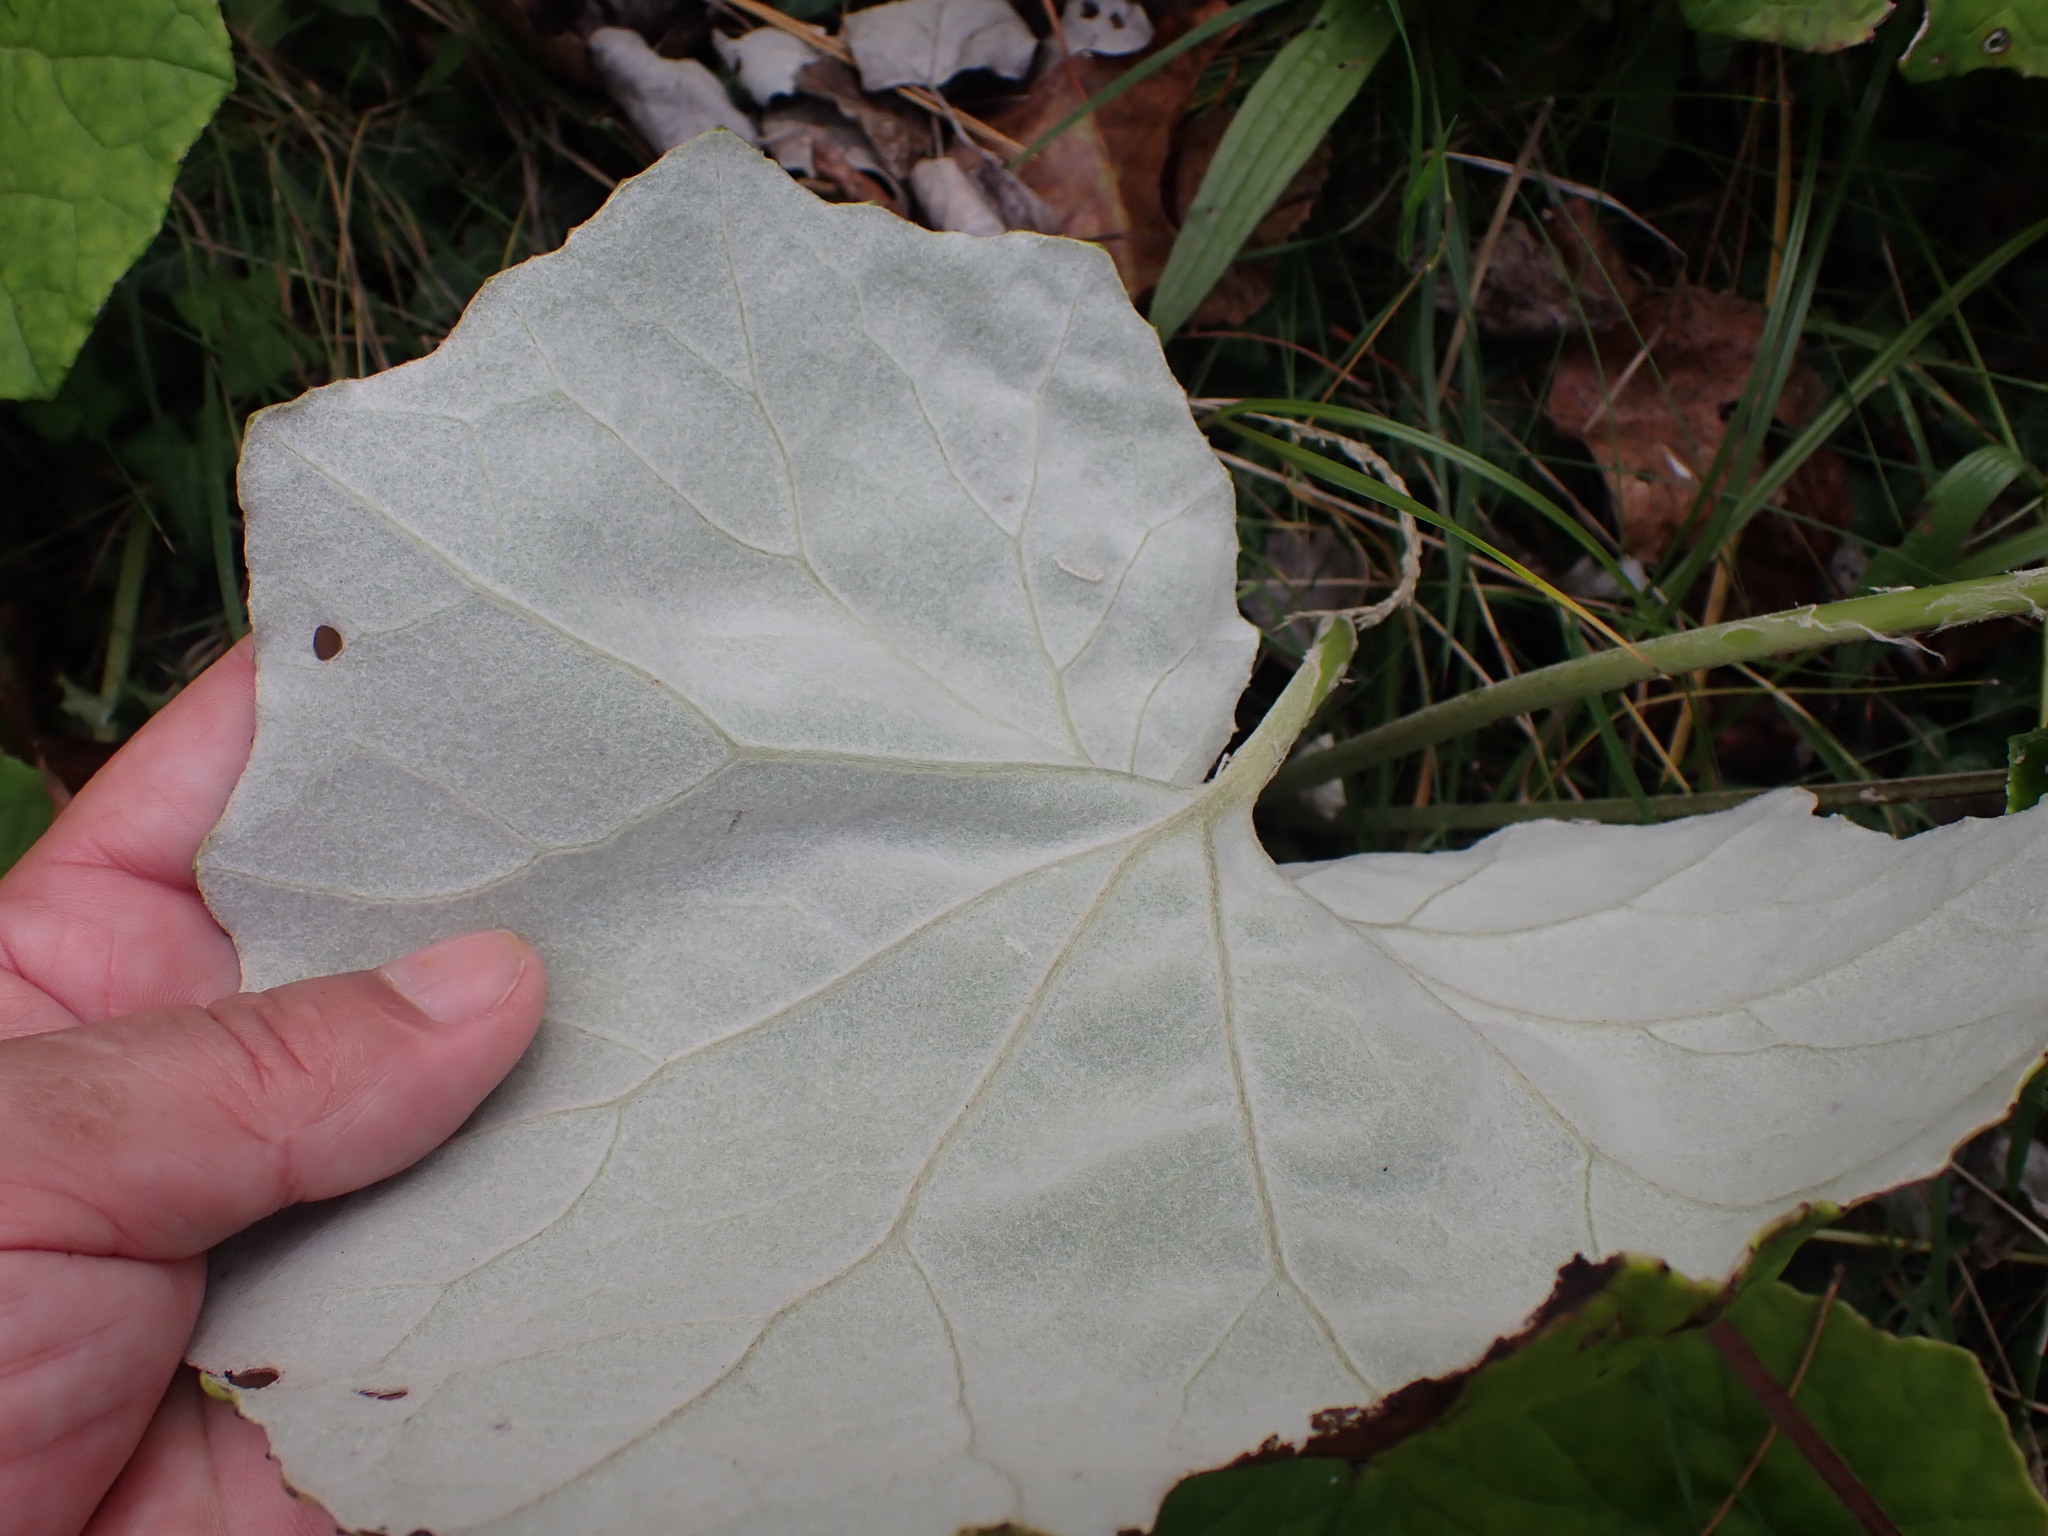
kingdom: Plantae
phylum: Tracheophyta
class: Magnoliopsida
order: Asterales
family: Asteraceae
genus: Tussilago
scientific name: Tussilago farfara
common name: Coltsfoot
